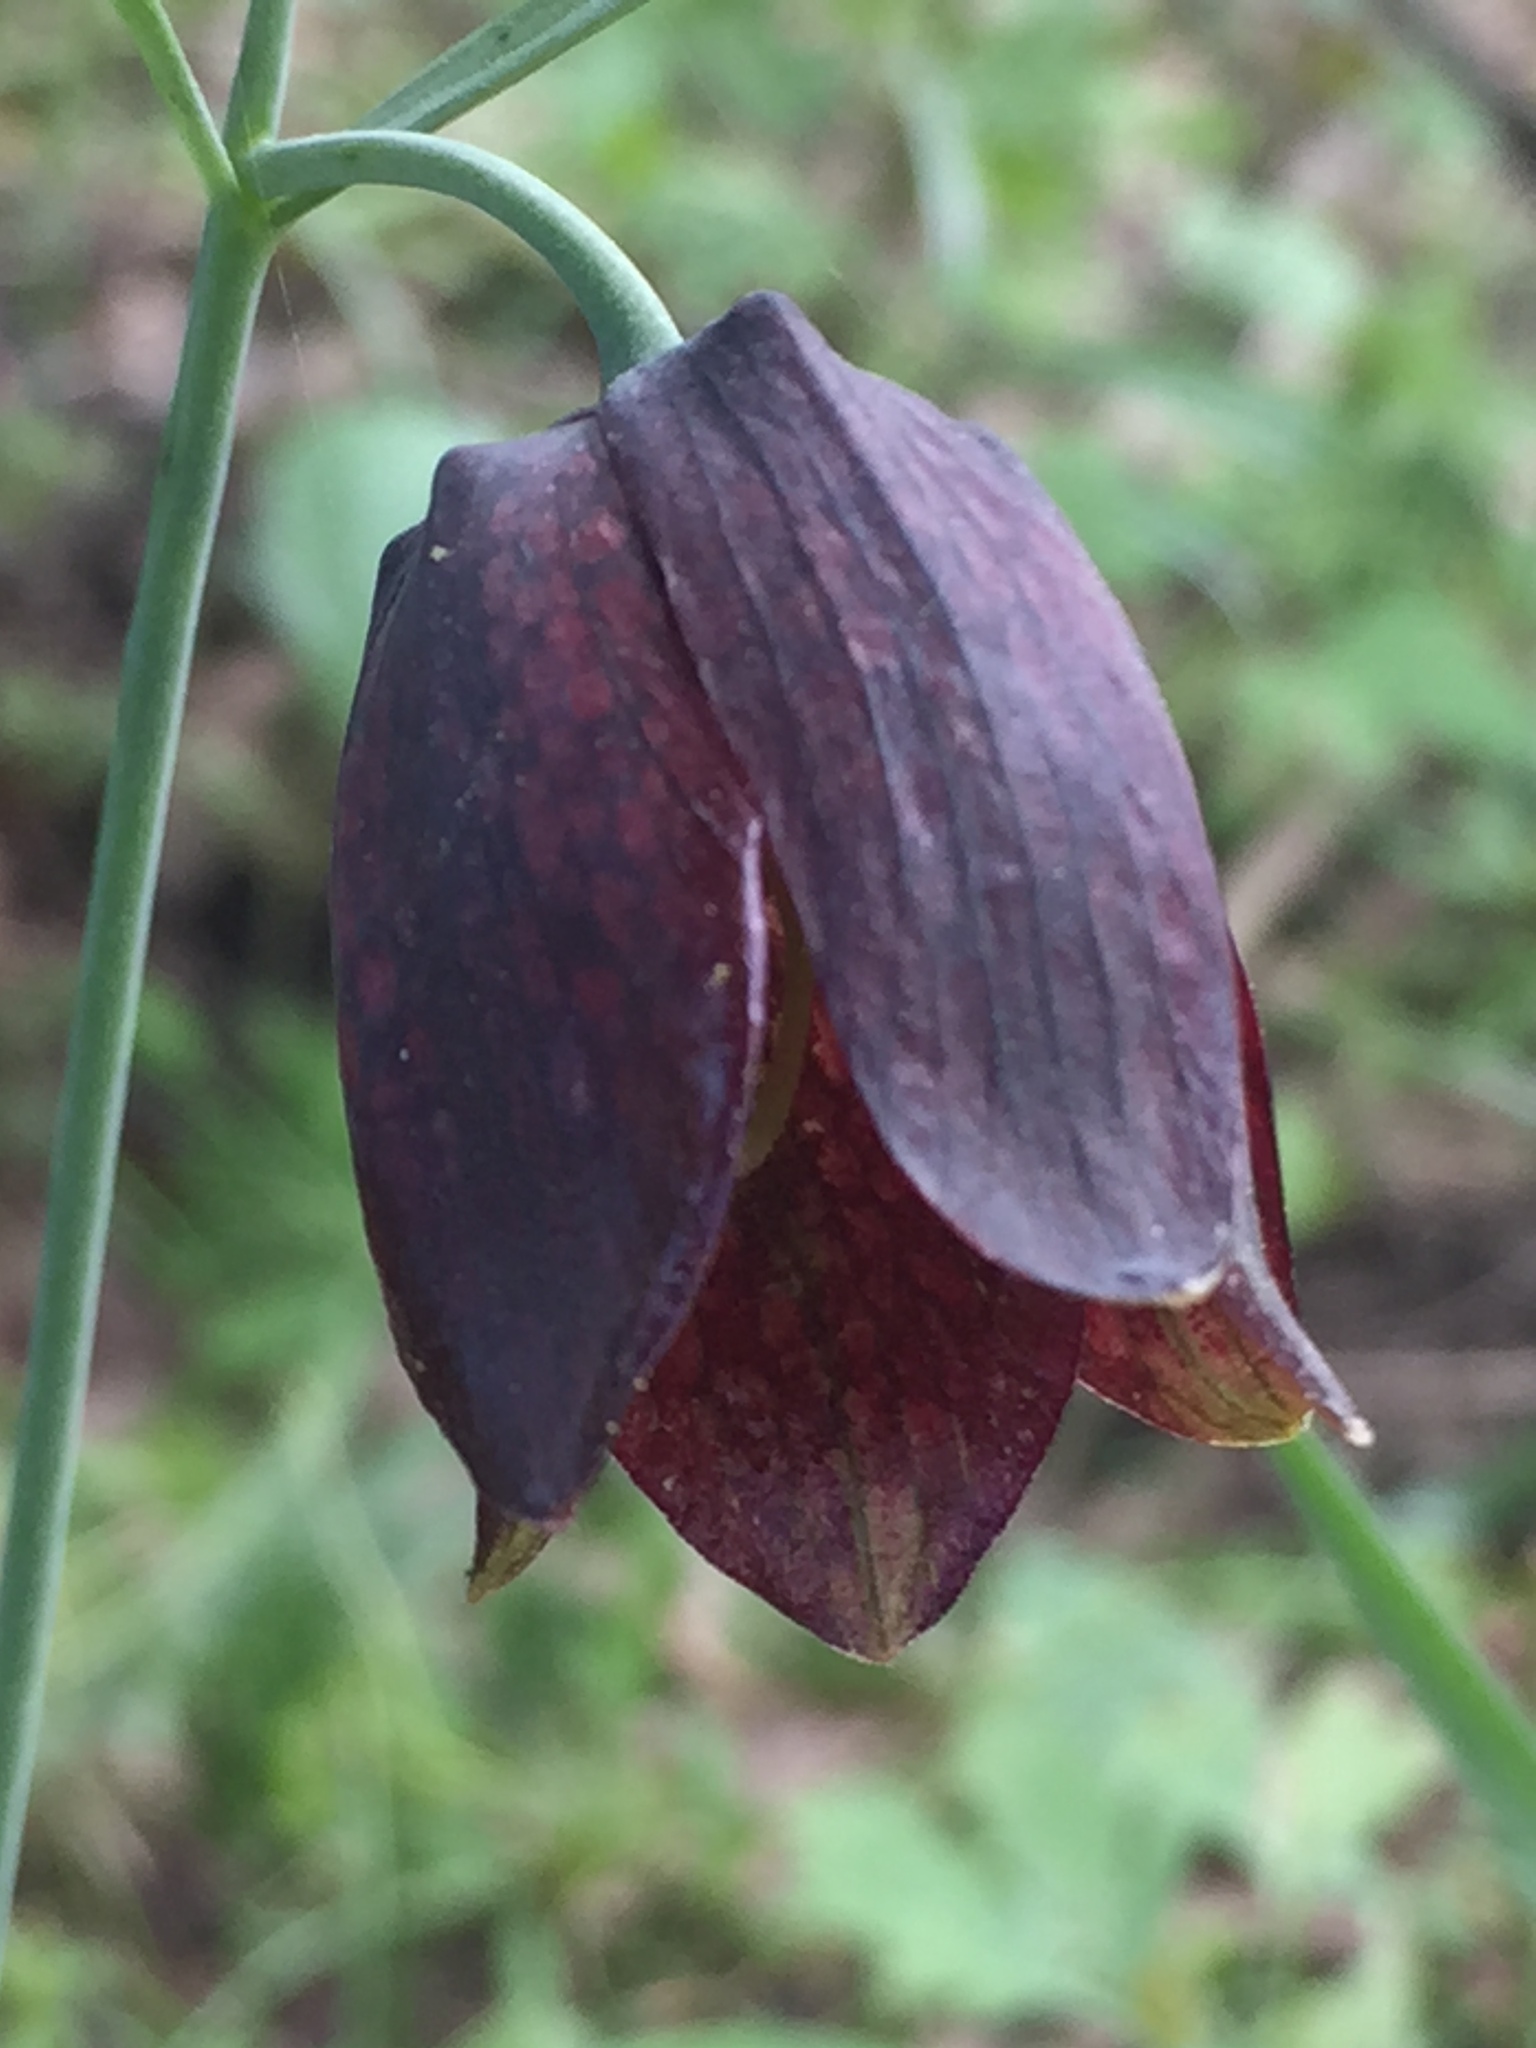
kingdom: Plantae
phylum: Tracheophyta
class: Liliopsida
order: Liliales
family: Liliaceae
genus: Fritillaria
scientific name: Fritillaria ruthenica
